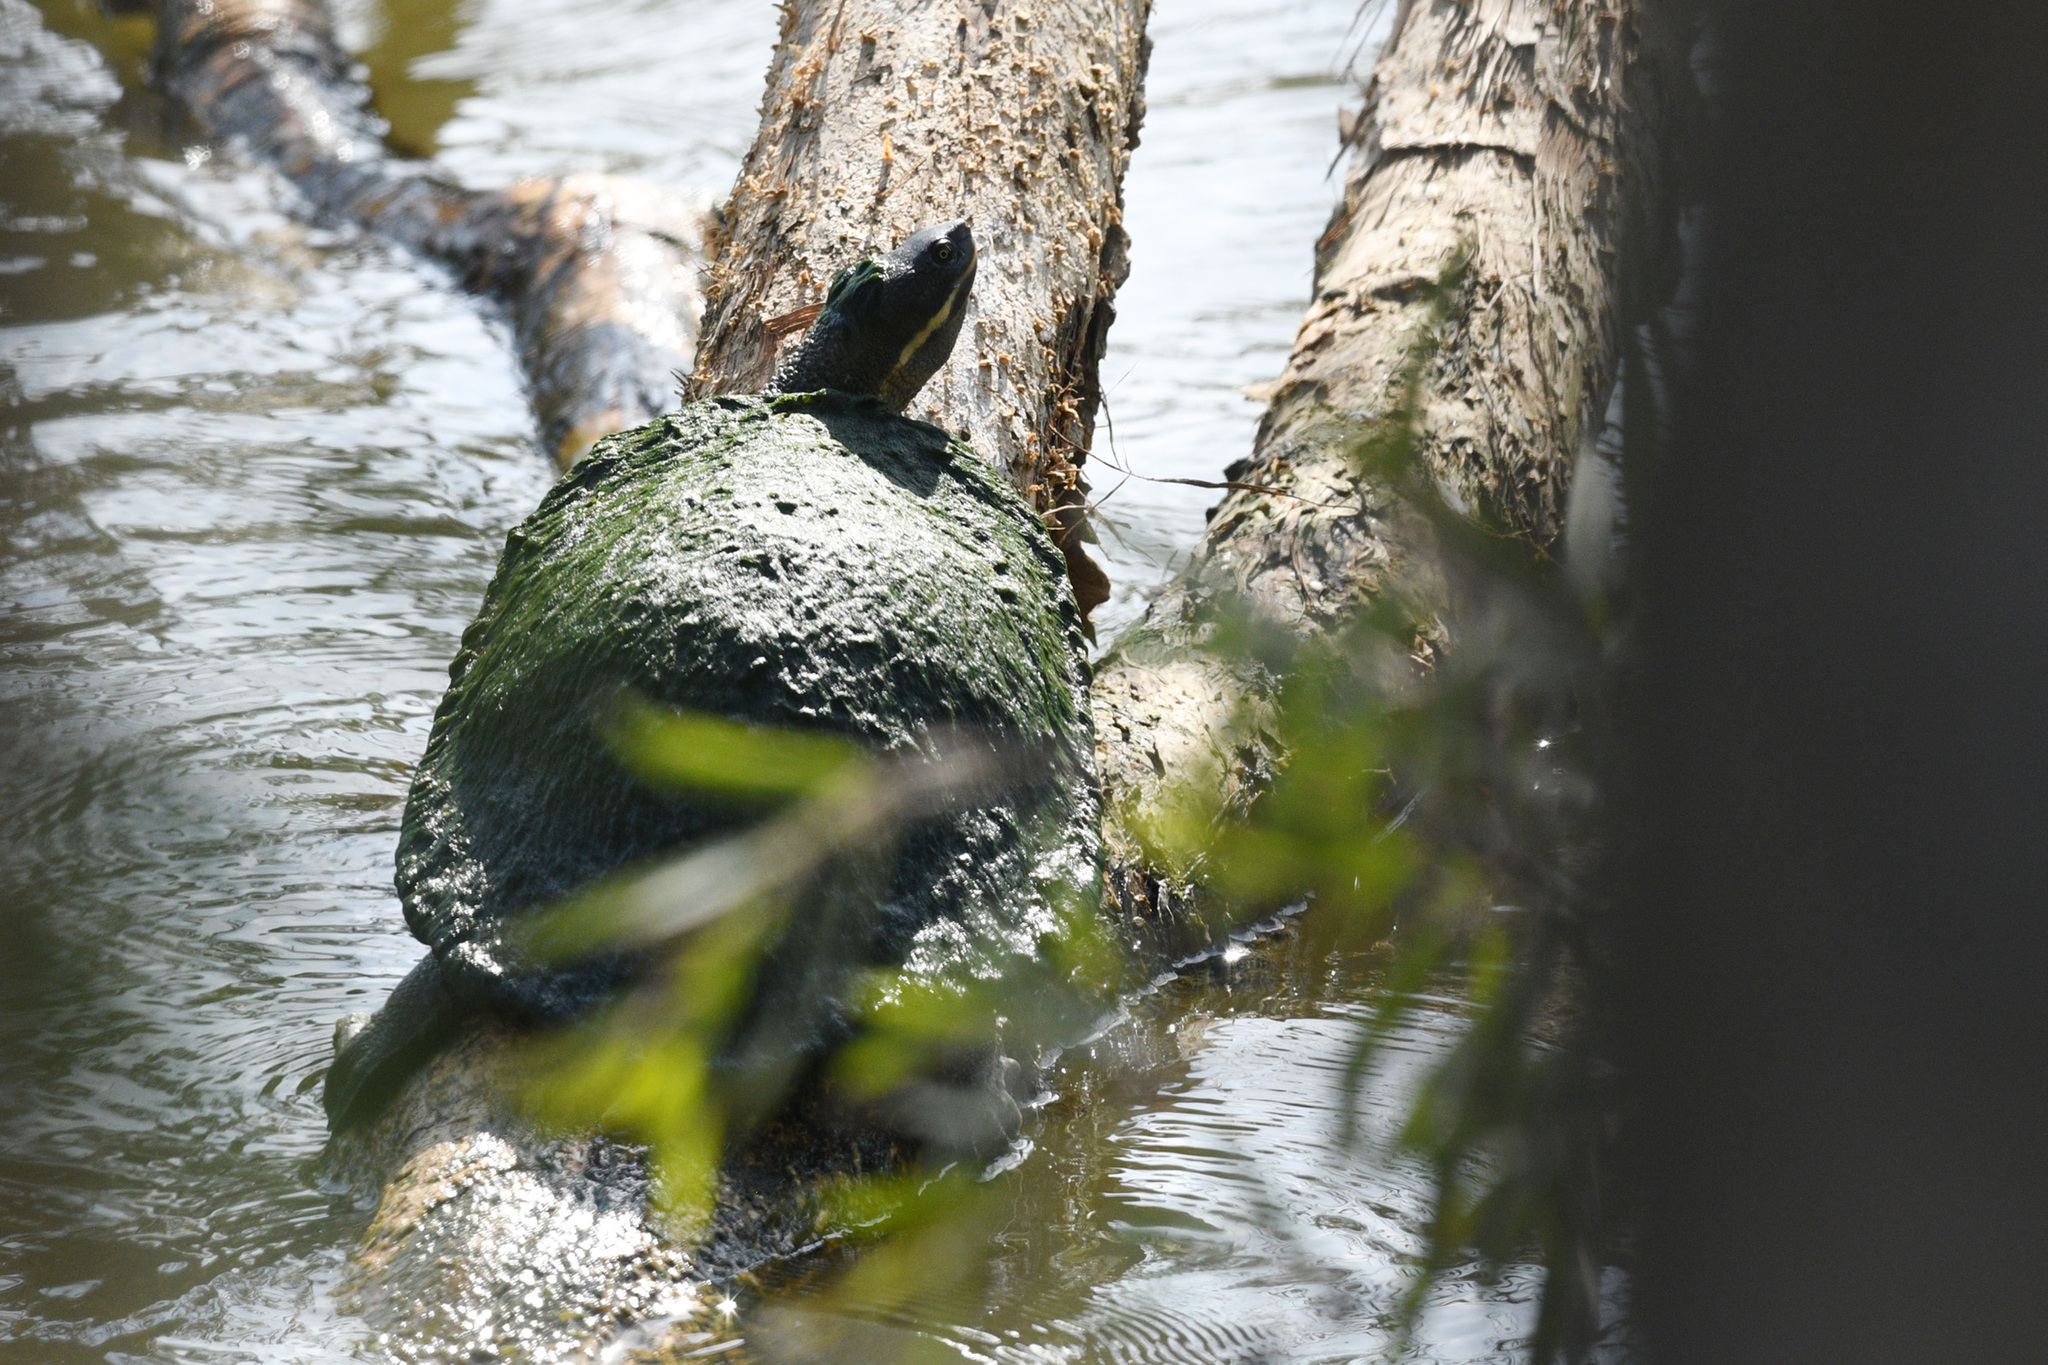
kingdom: Animalia
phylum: Chordata
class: Testudines
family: Chelidae
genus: Emydura
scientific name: Emydura macquarii
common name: Murray river turtle
